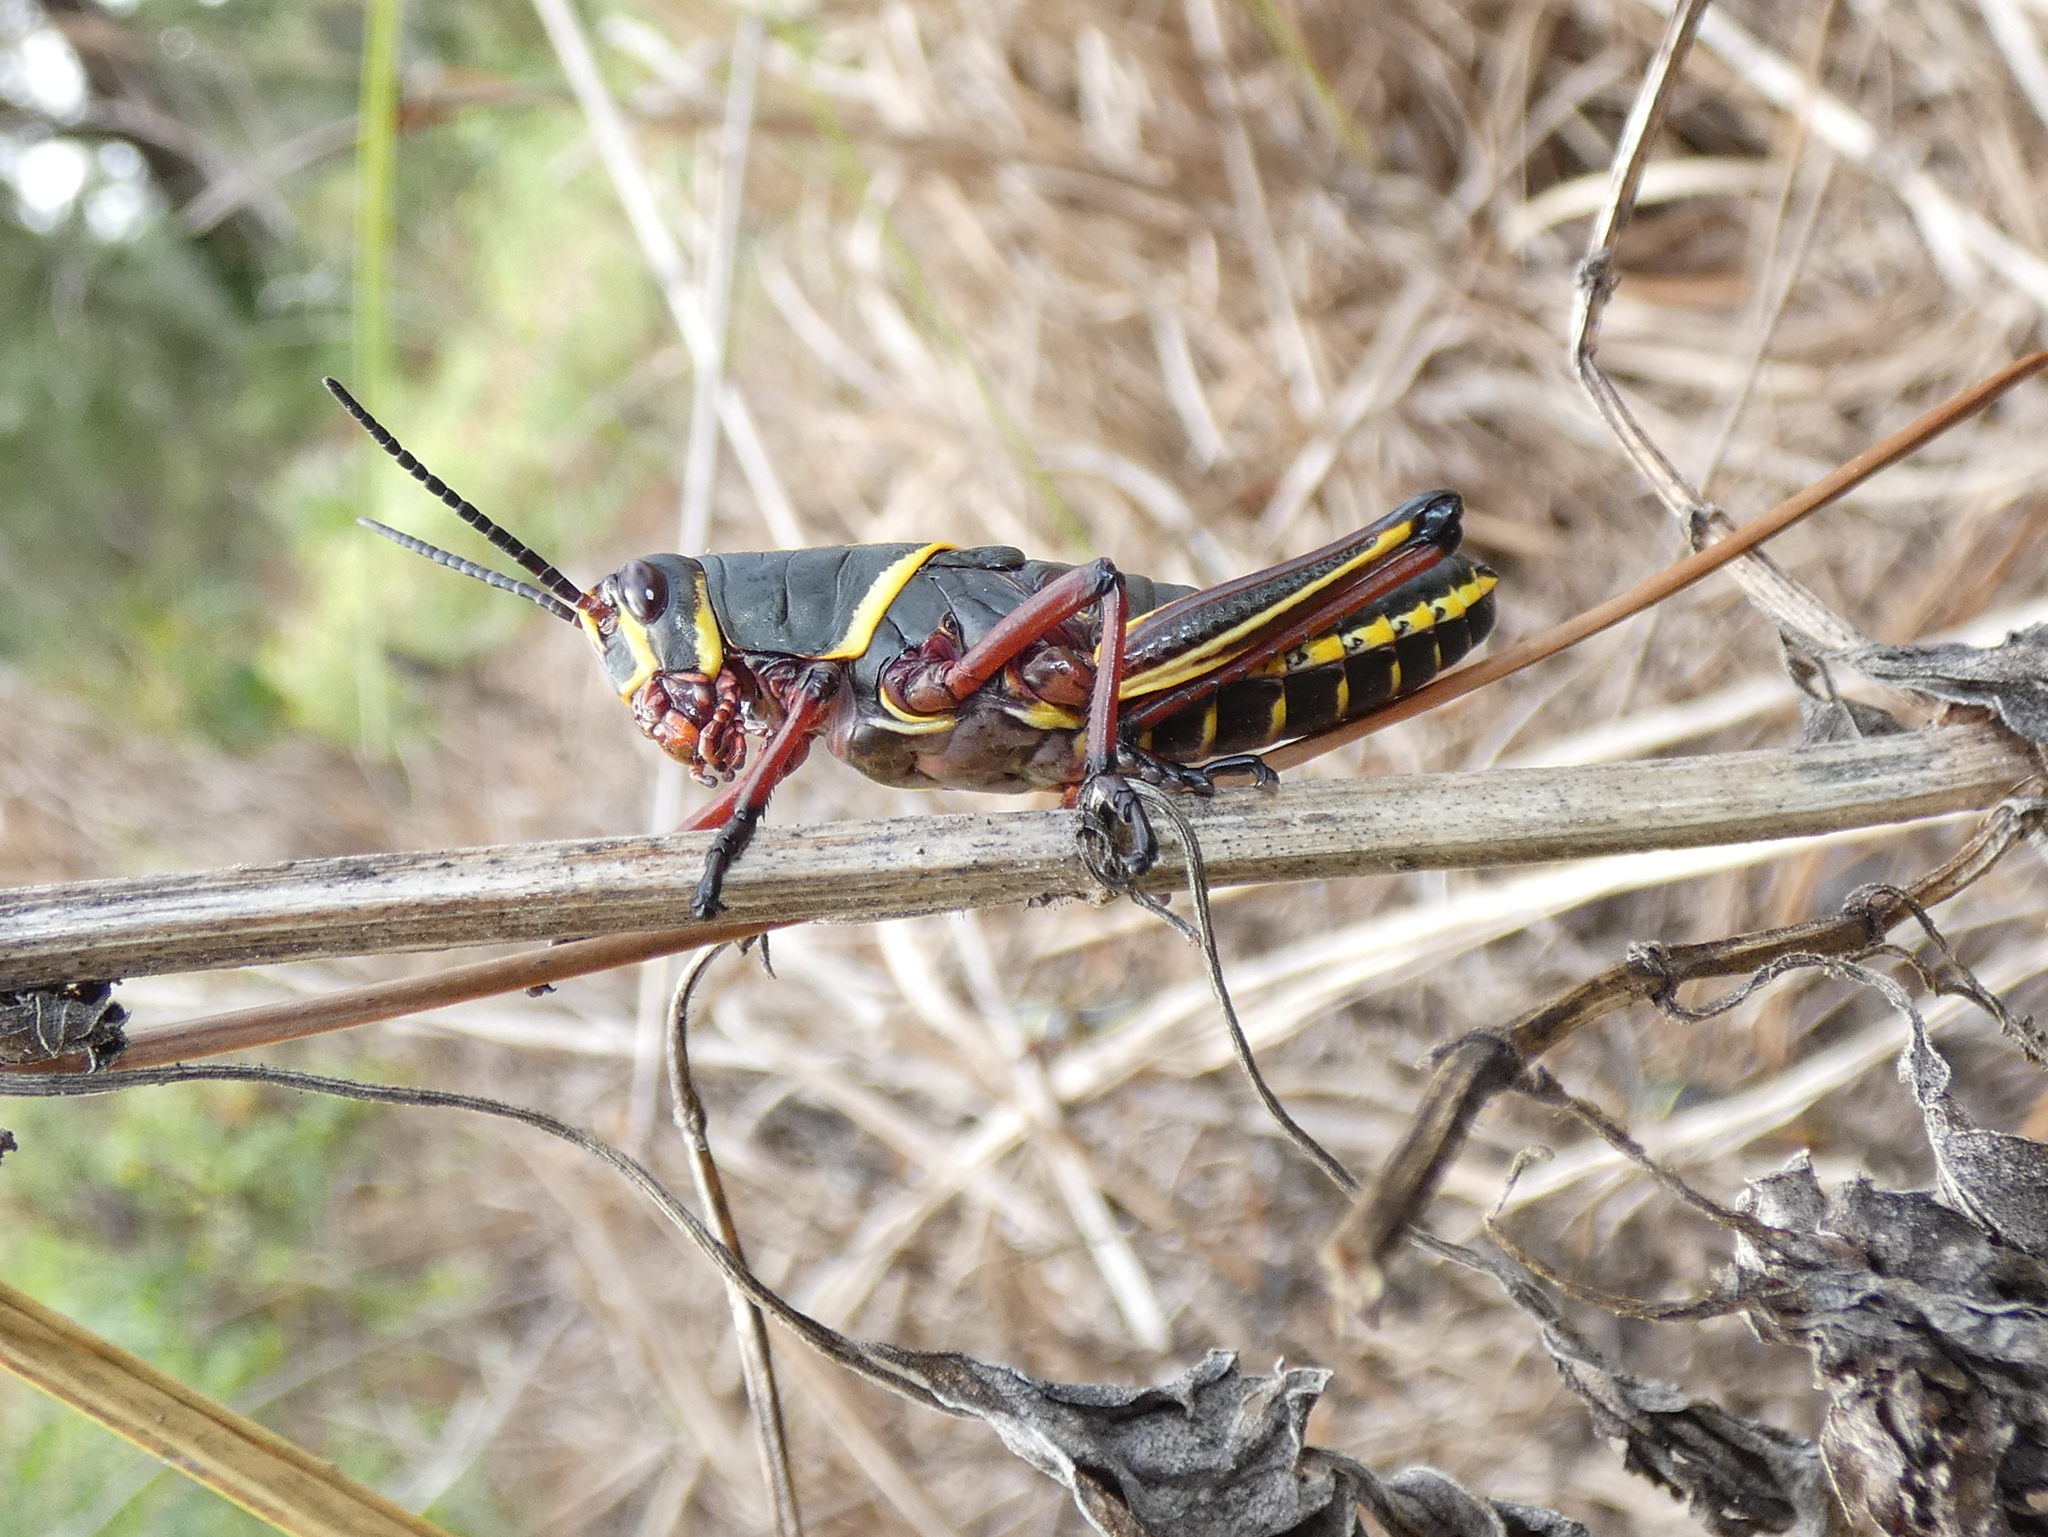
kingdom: Animalia
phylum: Arthropoda
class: Insecta
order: Orthoptera
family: Romaleidae
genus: Romalea
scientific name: Romalea microptera
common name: Eastern lubber grasshopper
